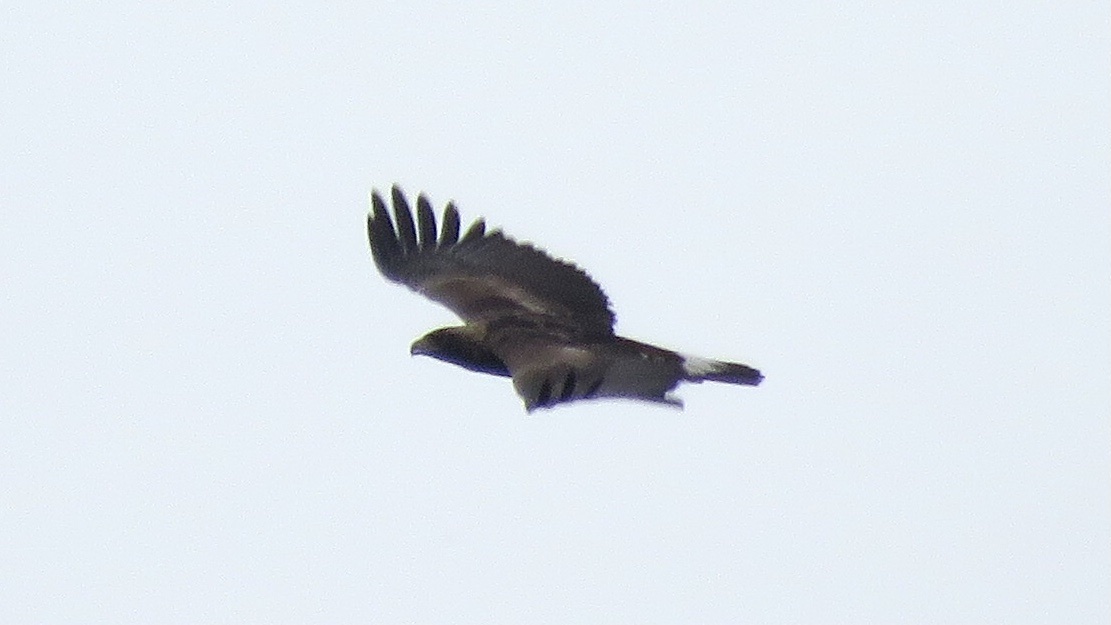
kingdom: Animalia
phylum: Chordata
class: Aves
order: Accipitriformes
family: Accipitridae
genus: Aquila
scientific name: Aquila chrysaetos
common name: Golden eagle
